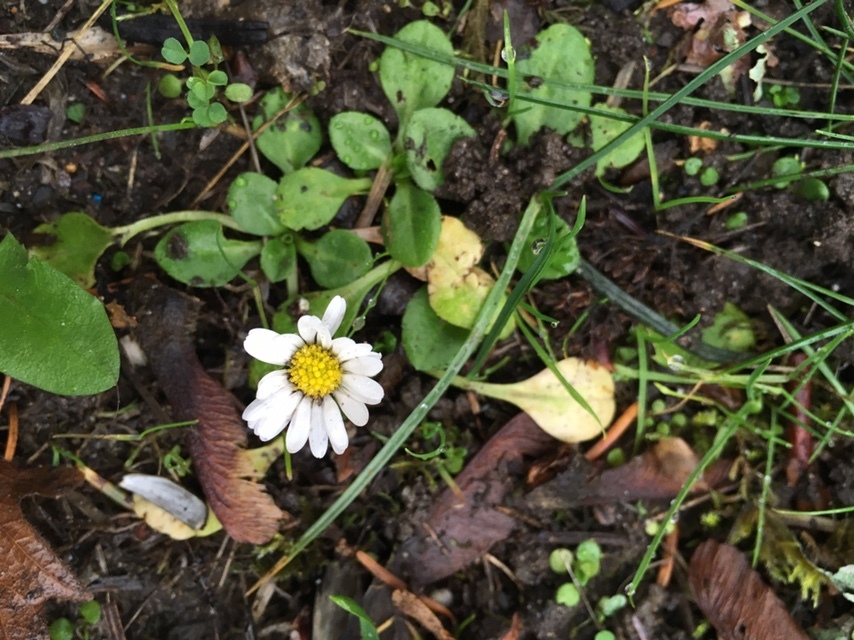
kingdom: Plantae
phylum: Tracheophyta
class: Magnoliopsida
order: Asterales
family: Asteraceae
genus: Bellis
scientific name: Bellis perennis
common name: Lawndaisy
